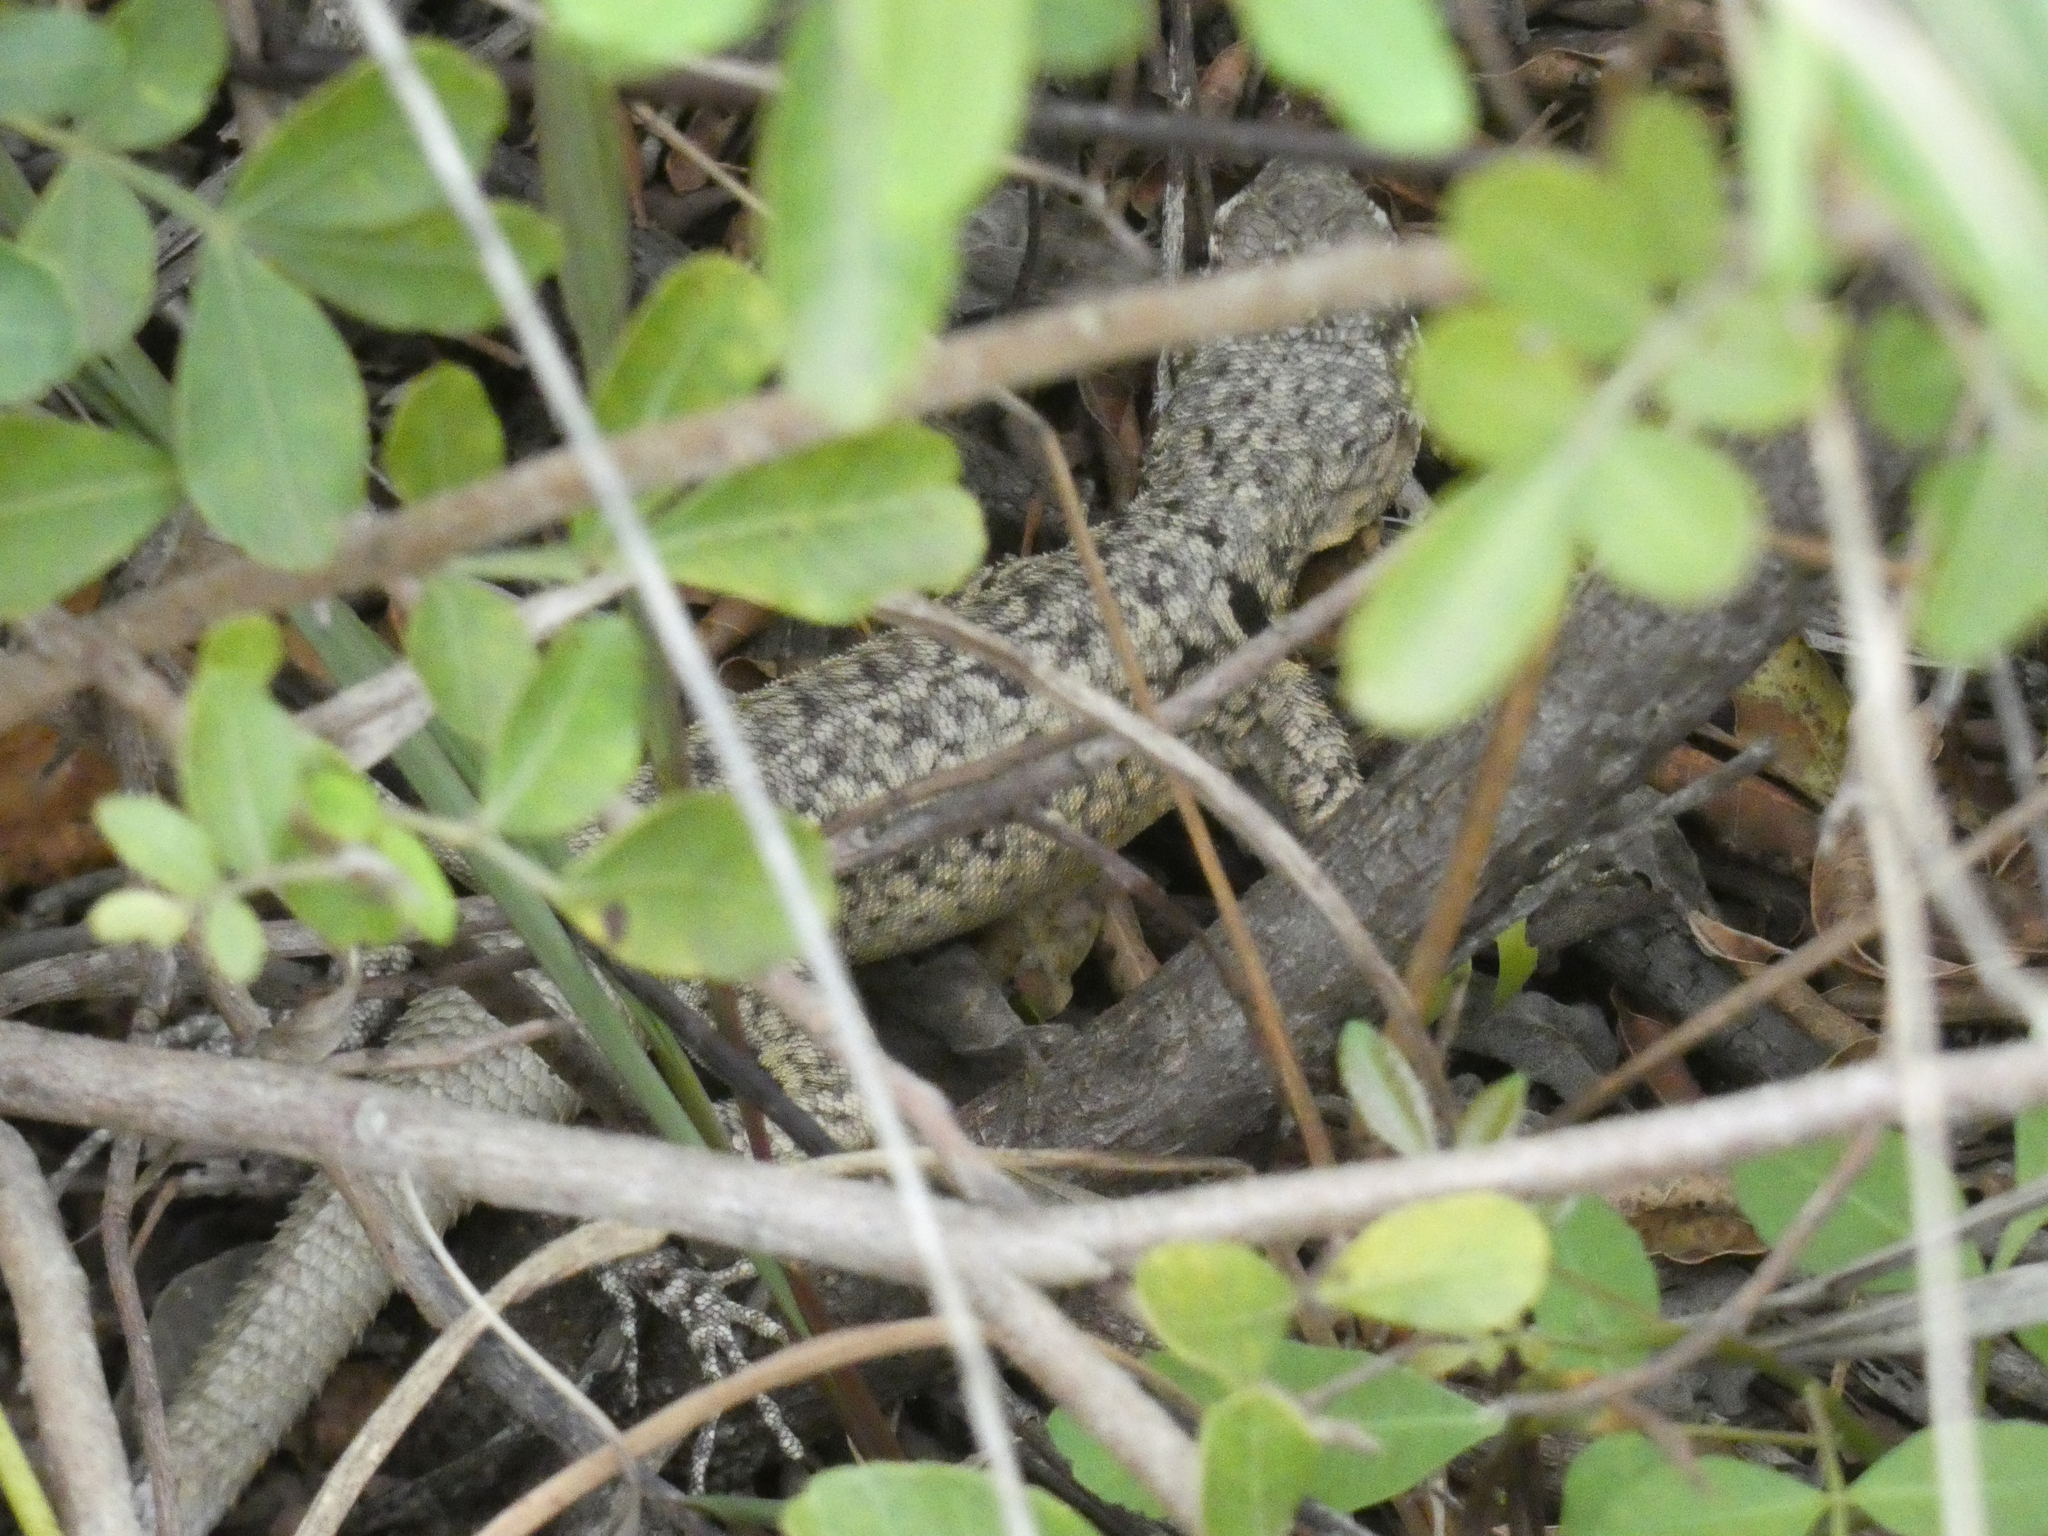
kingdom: Animalia
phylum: Chordata
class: Squamata
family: Tropiduridae
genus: Tropidurus
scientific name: Tropidurus torquatus
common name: Amazon lava lizard
